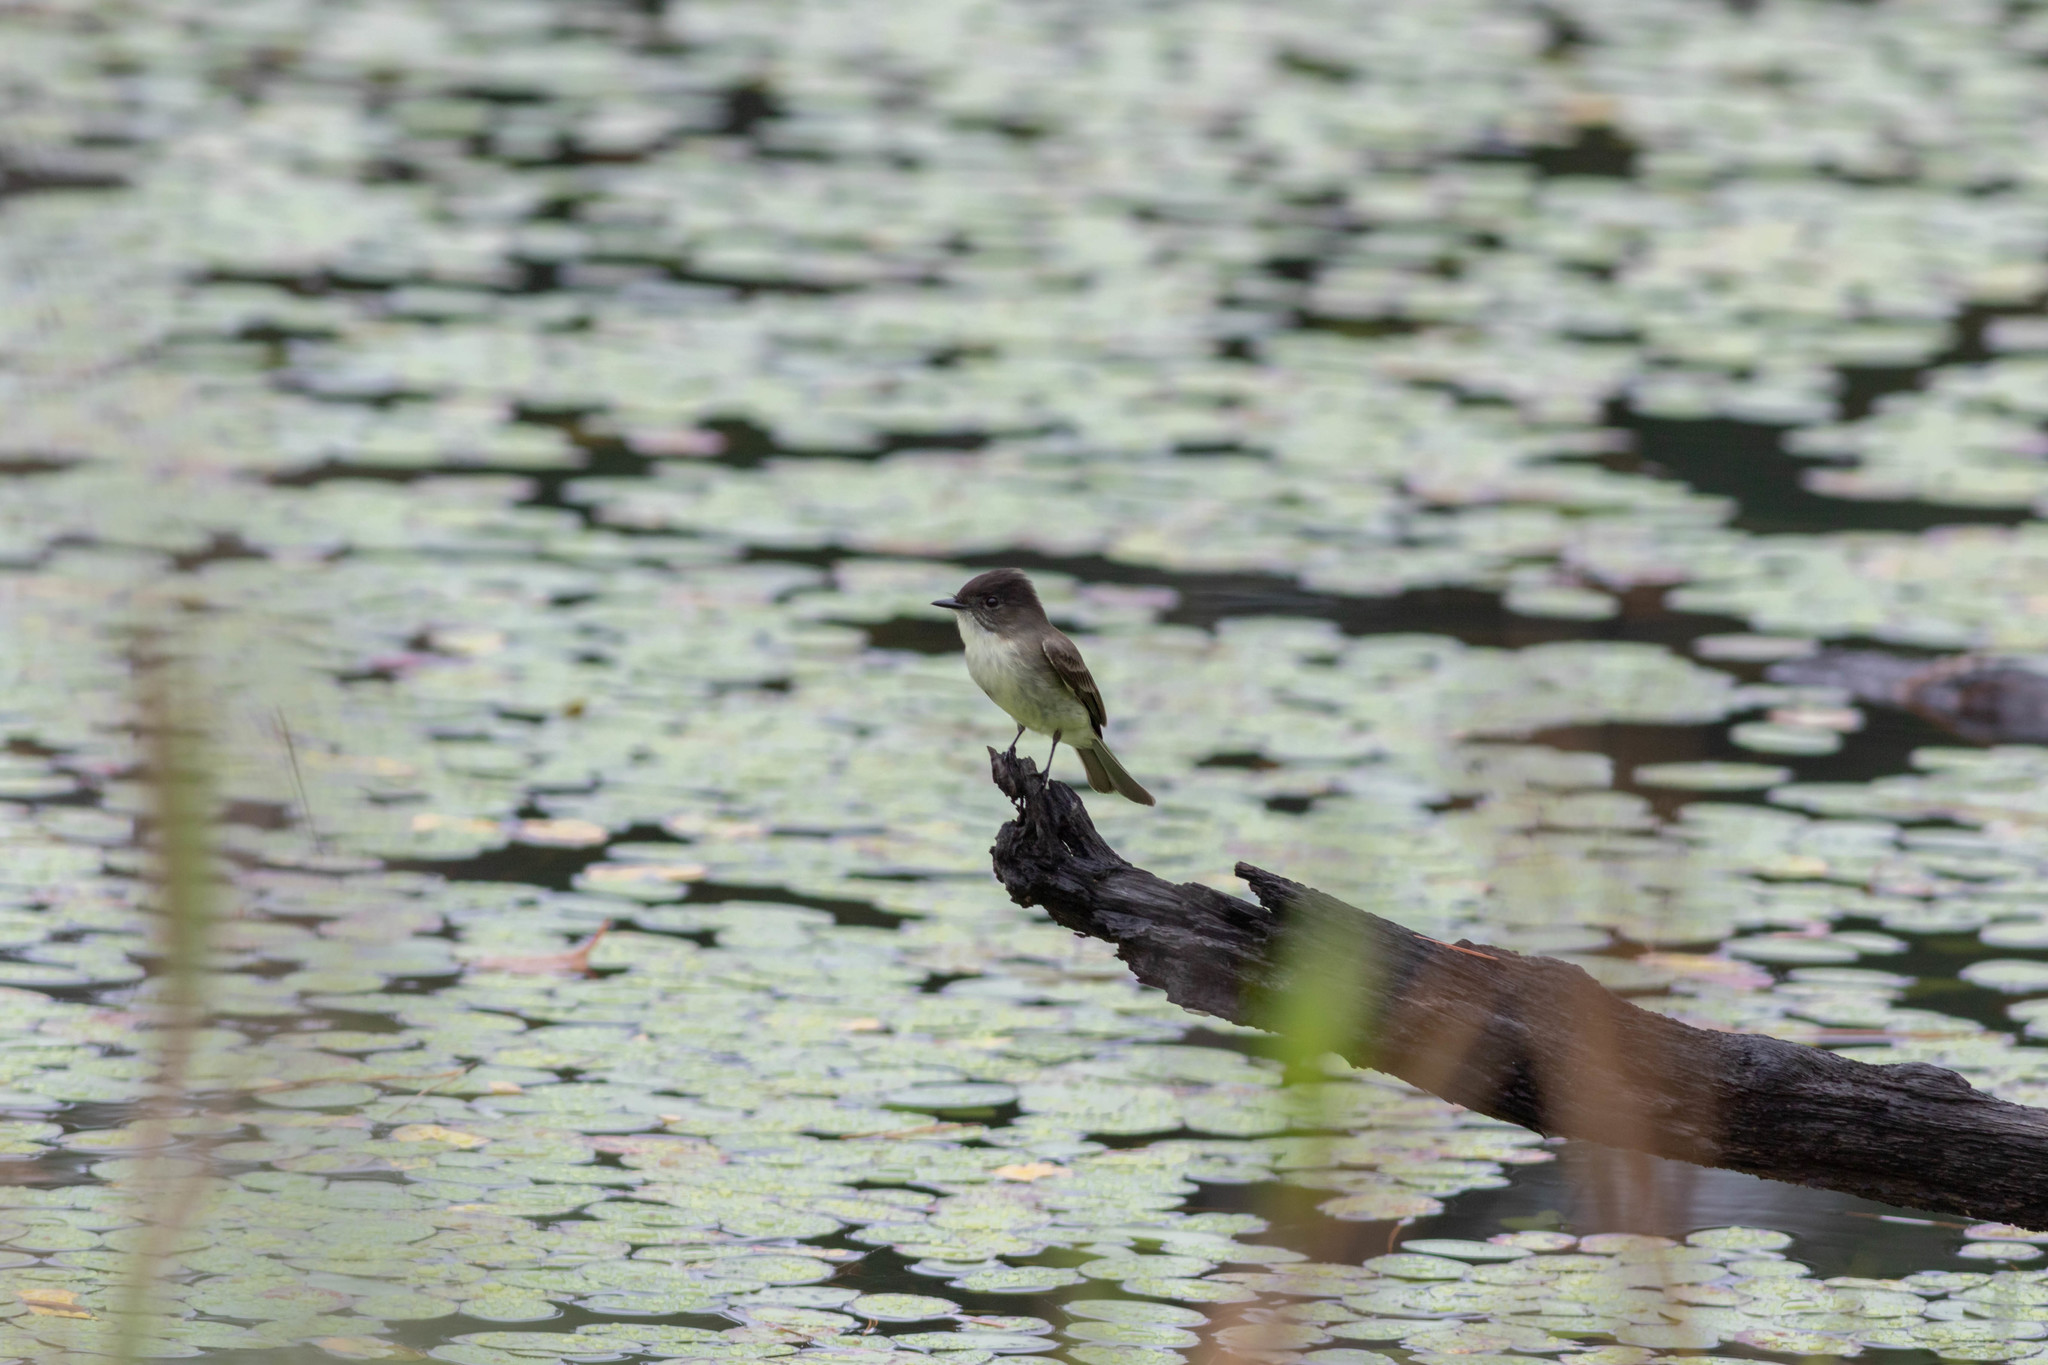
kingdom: Animalia
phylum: Chordata
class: Aves
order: Passeriformes
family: Tyrannidae
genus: Sayornis
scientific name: Sayornis phoebe
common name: Eastern phoebe
